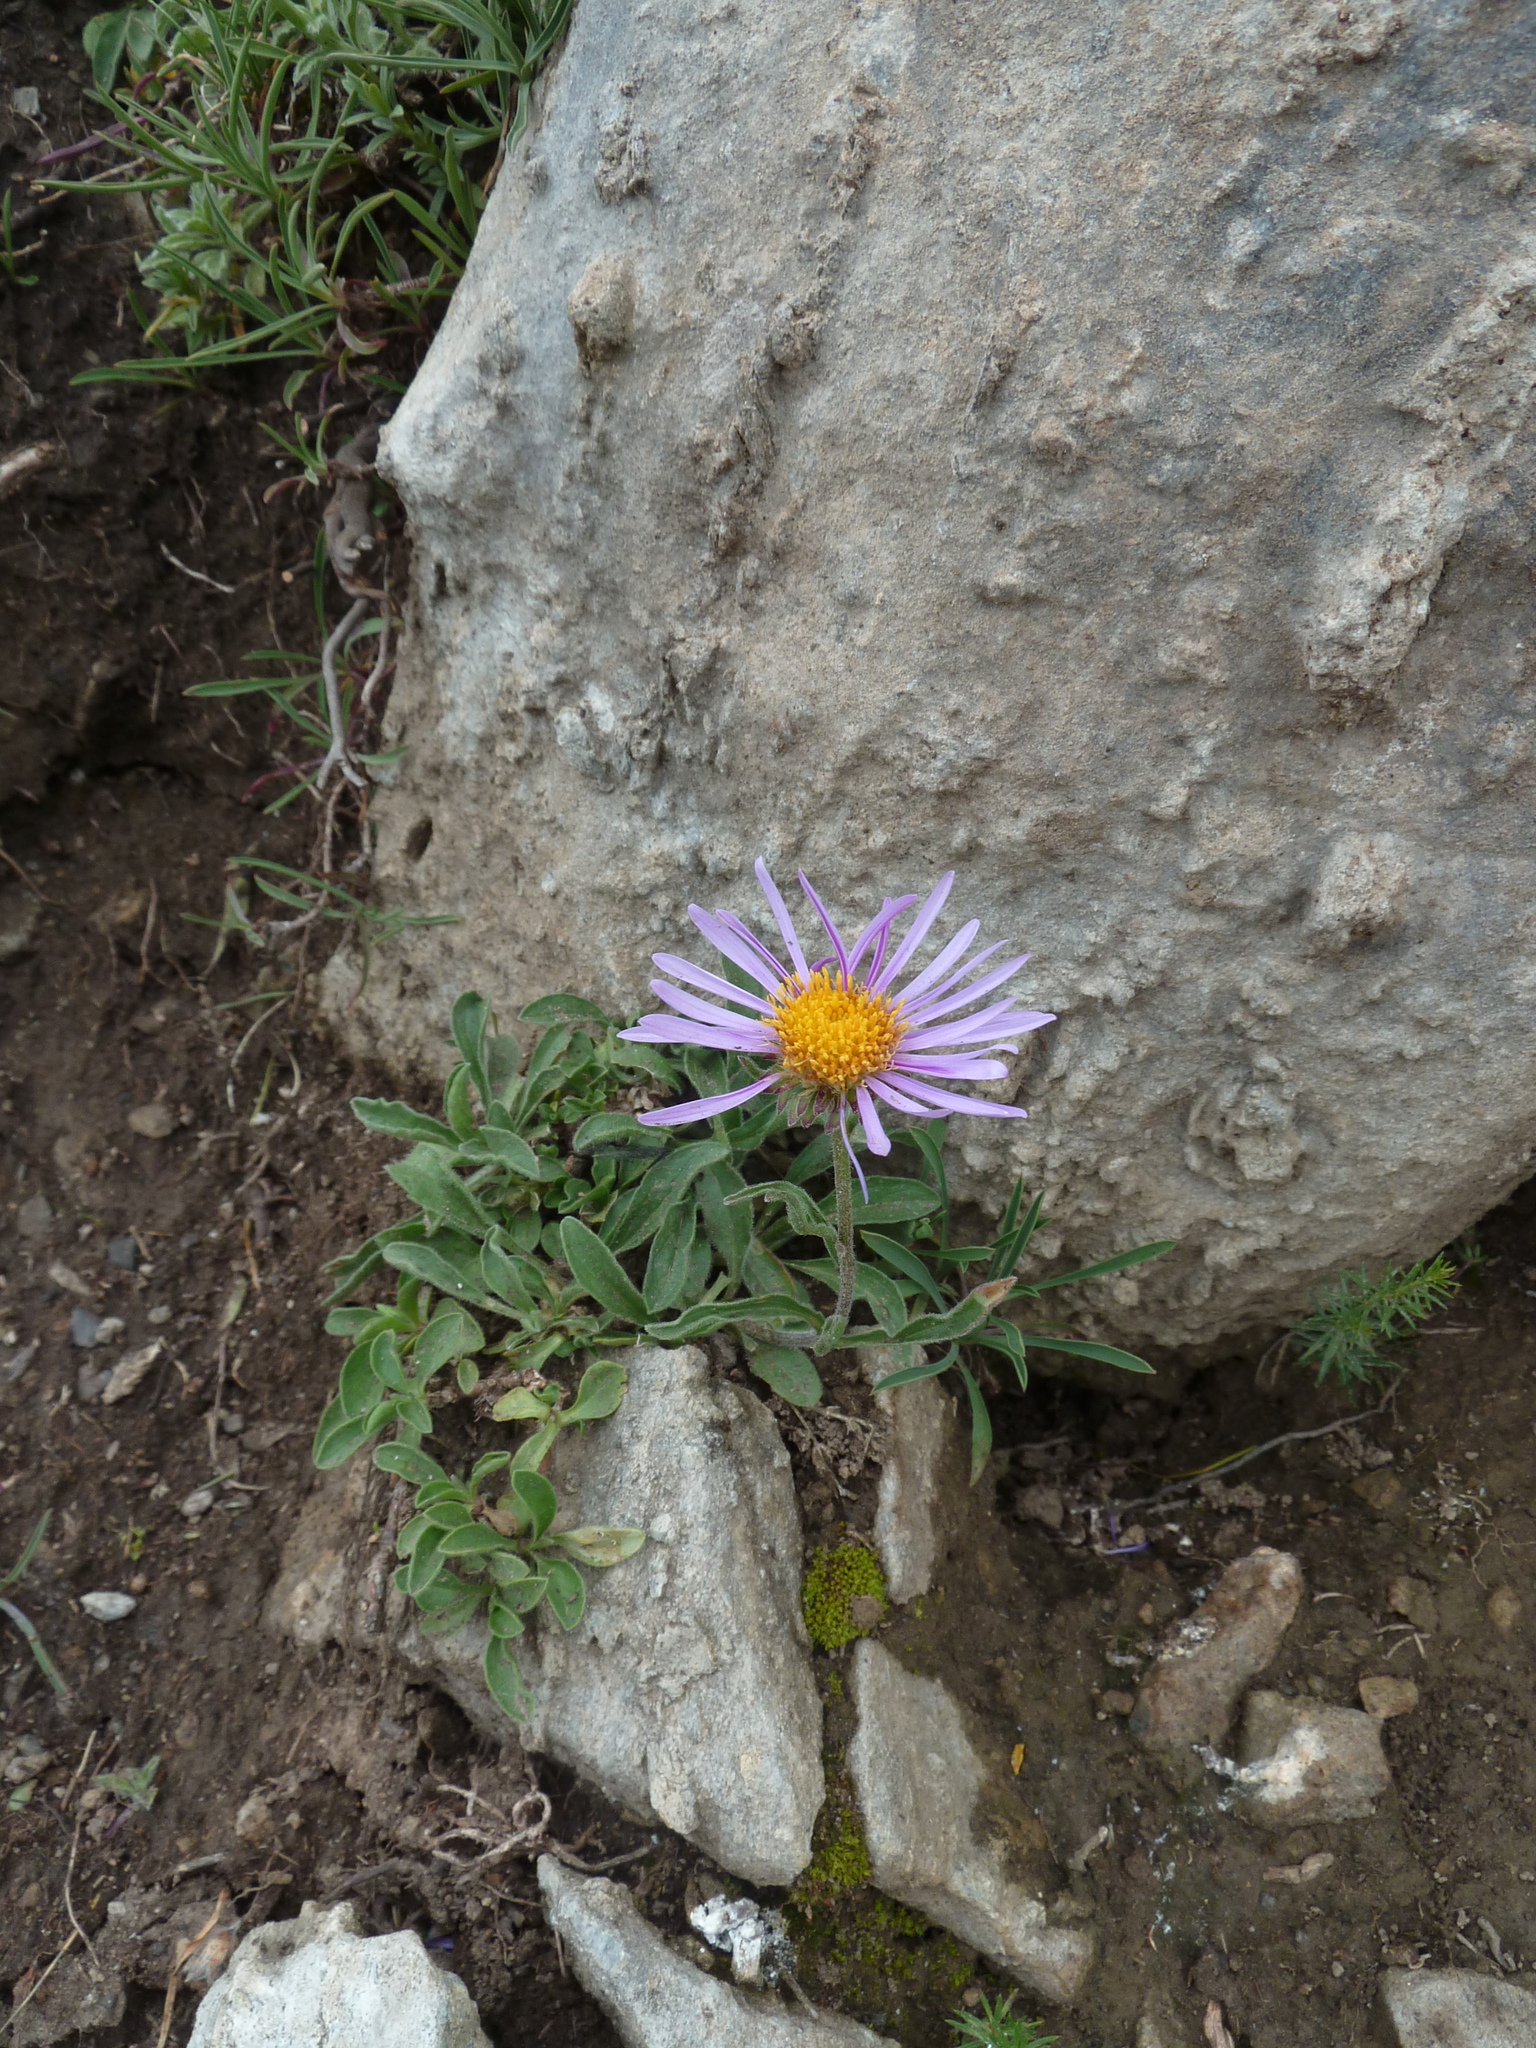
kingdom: Plantae
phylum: Tracheophyta
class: Magnoliopsida
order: Asterales
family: Asteraceae
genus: Aster
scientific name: Aster alpinus
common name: Alpine aster
